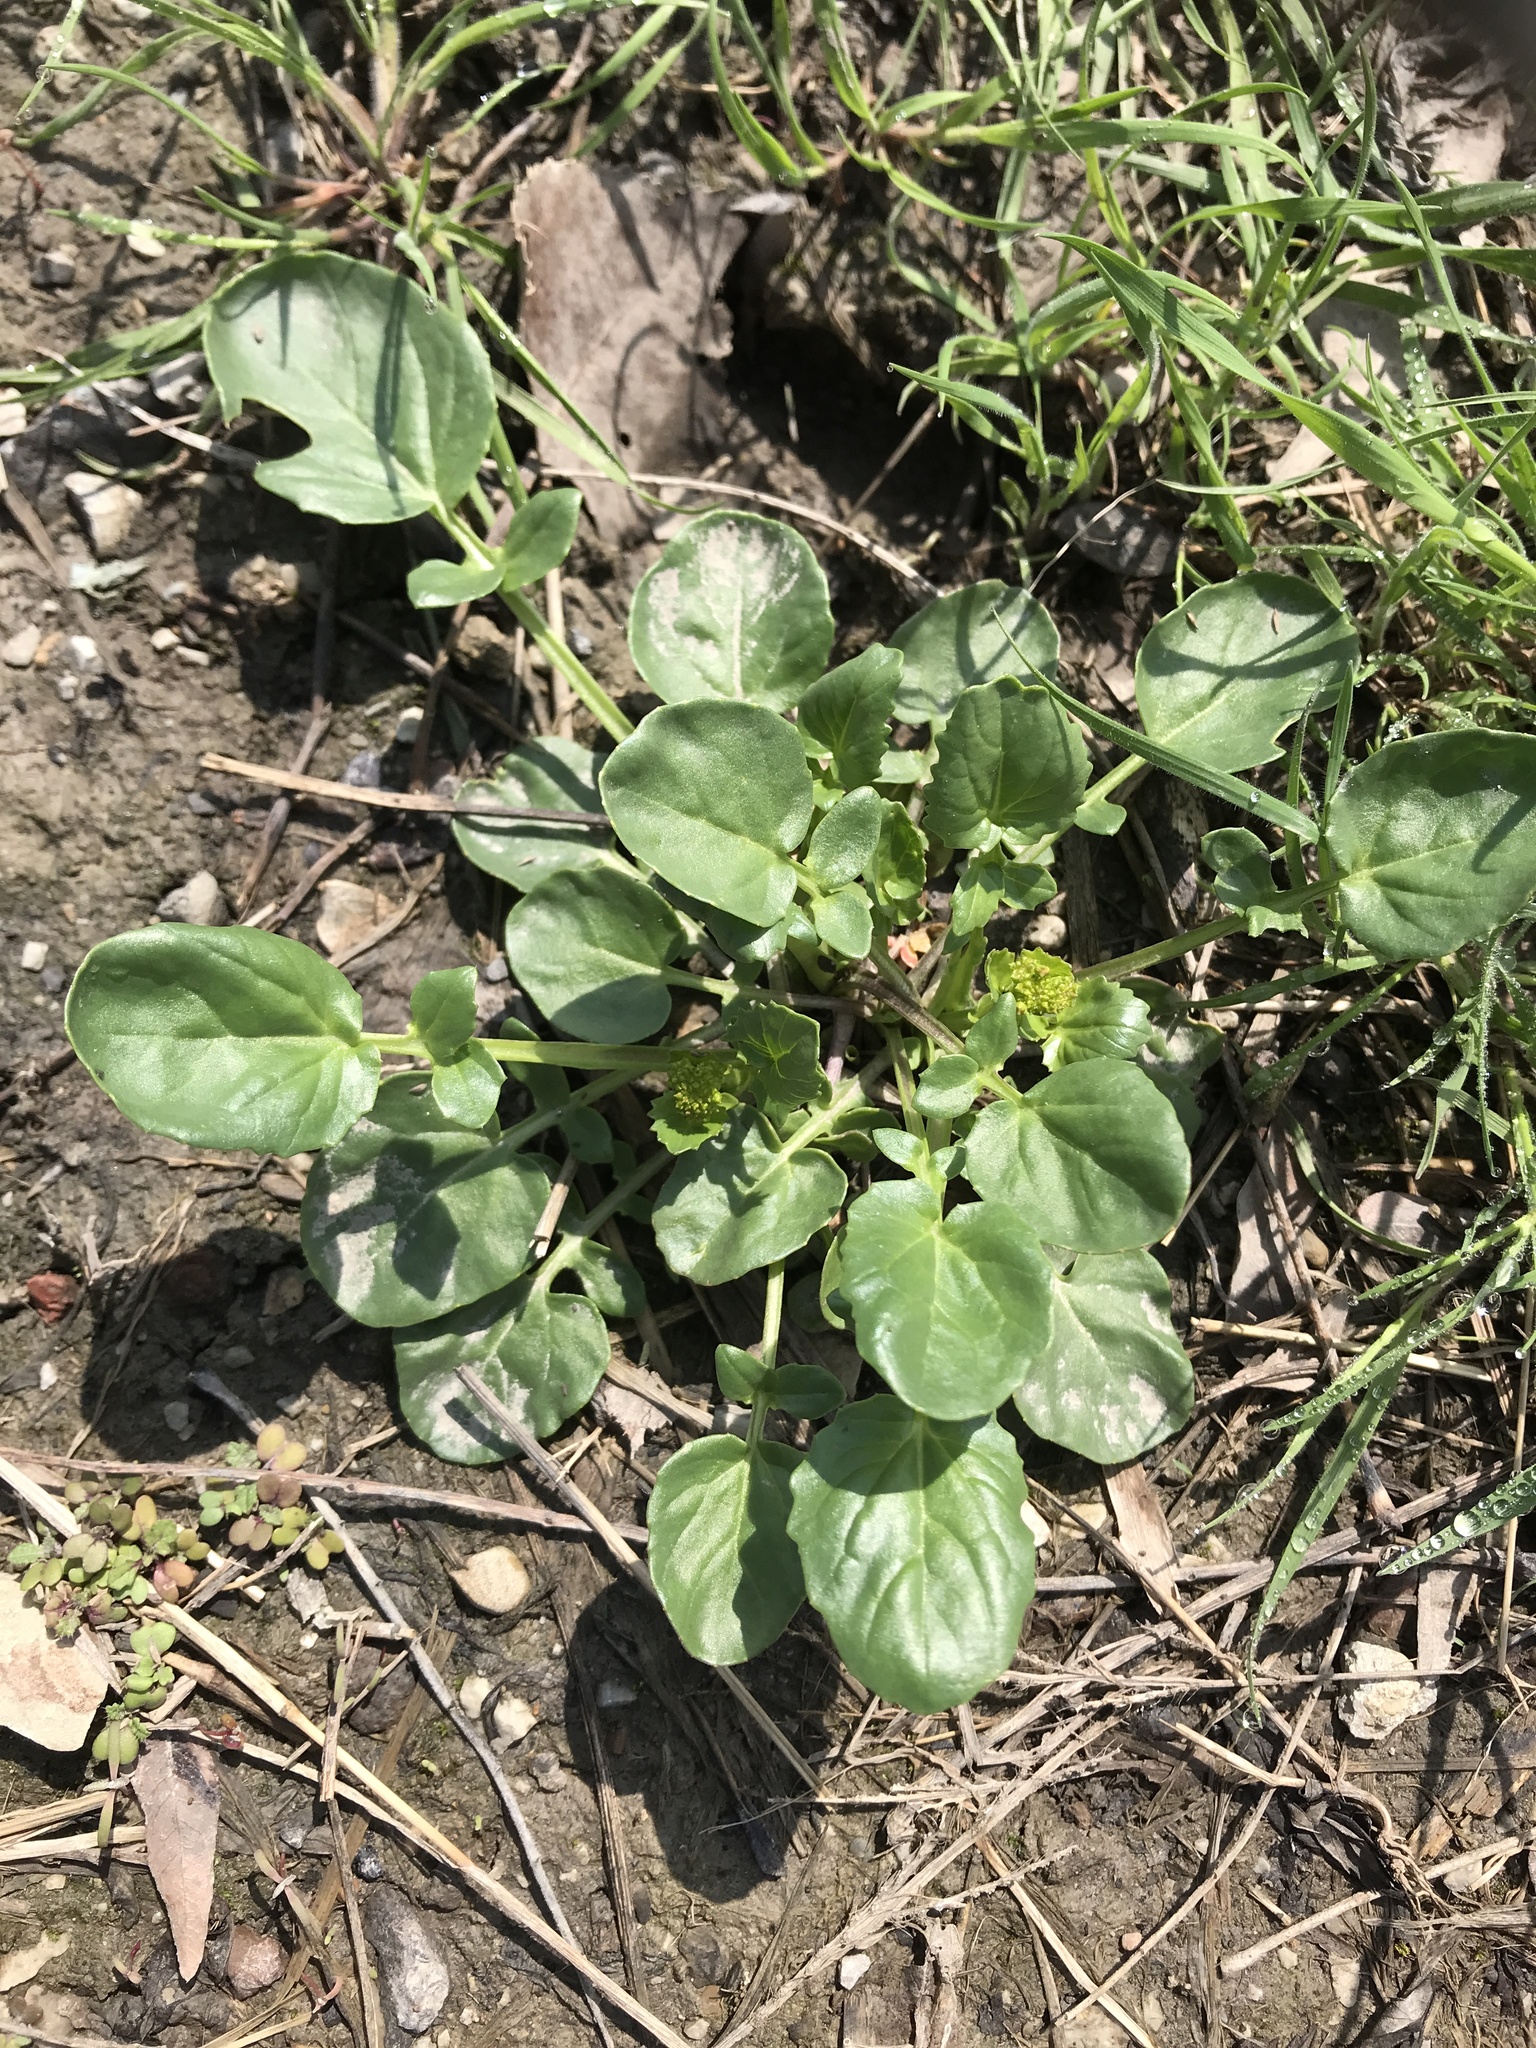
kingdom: Plantae
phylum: Tracheophyta
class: Magnoliopsida
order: Brassicales
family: Brassicaceae
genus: Barbarea
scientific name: Barbarea vulgaris
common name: Cressy-greens
